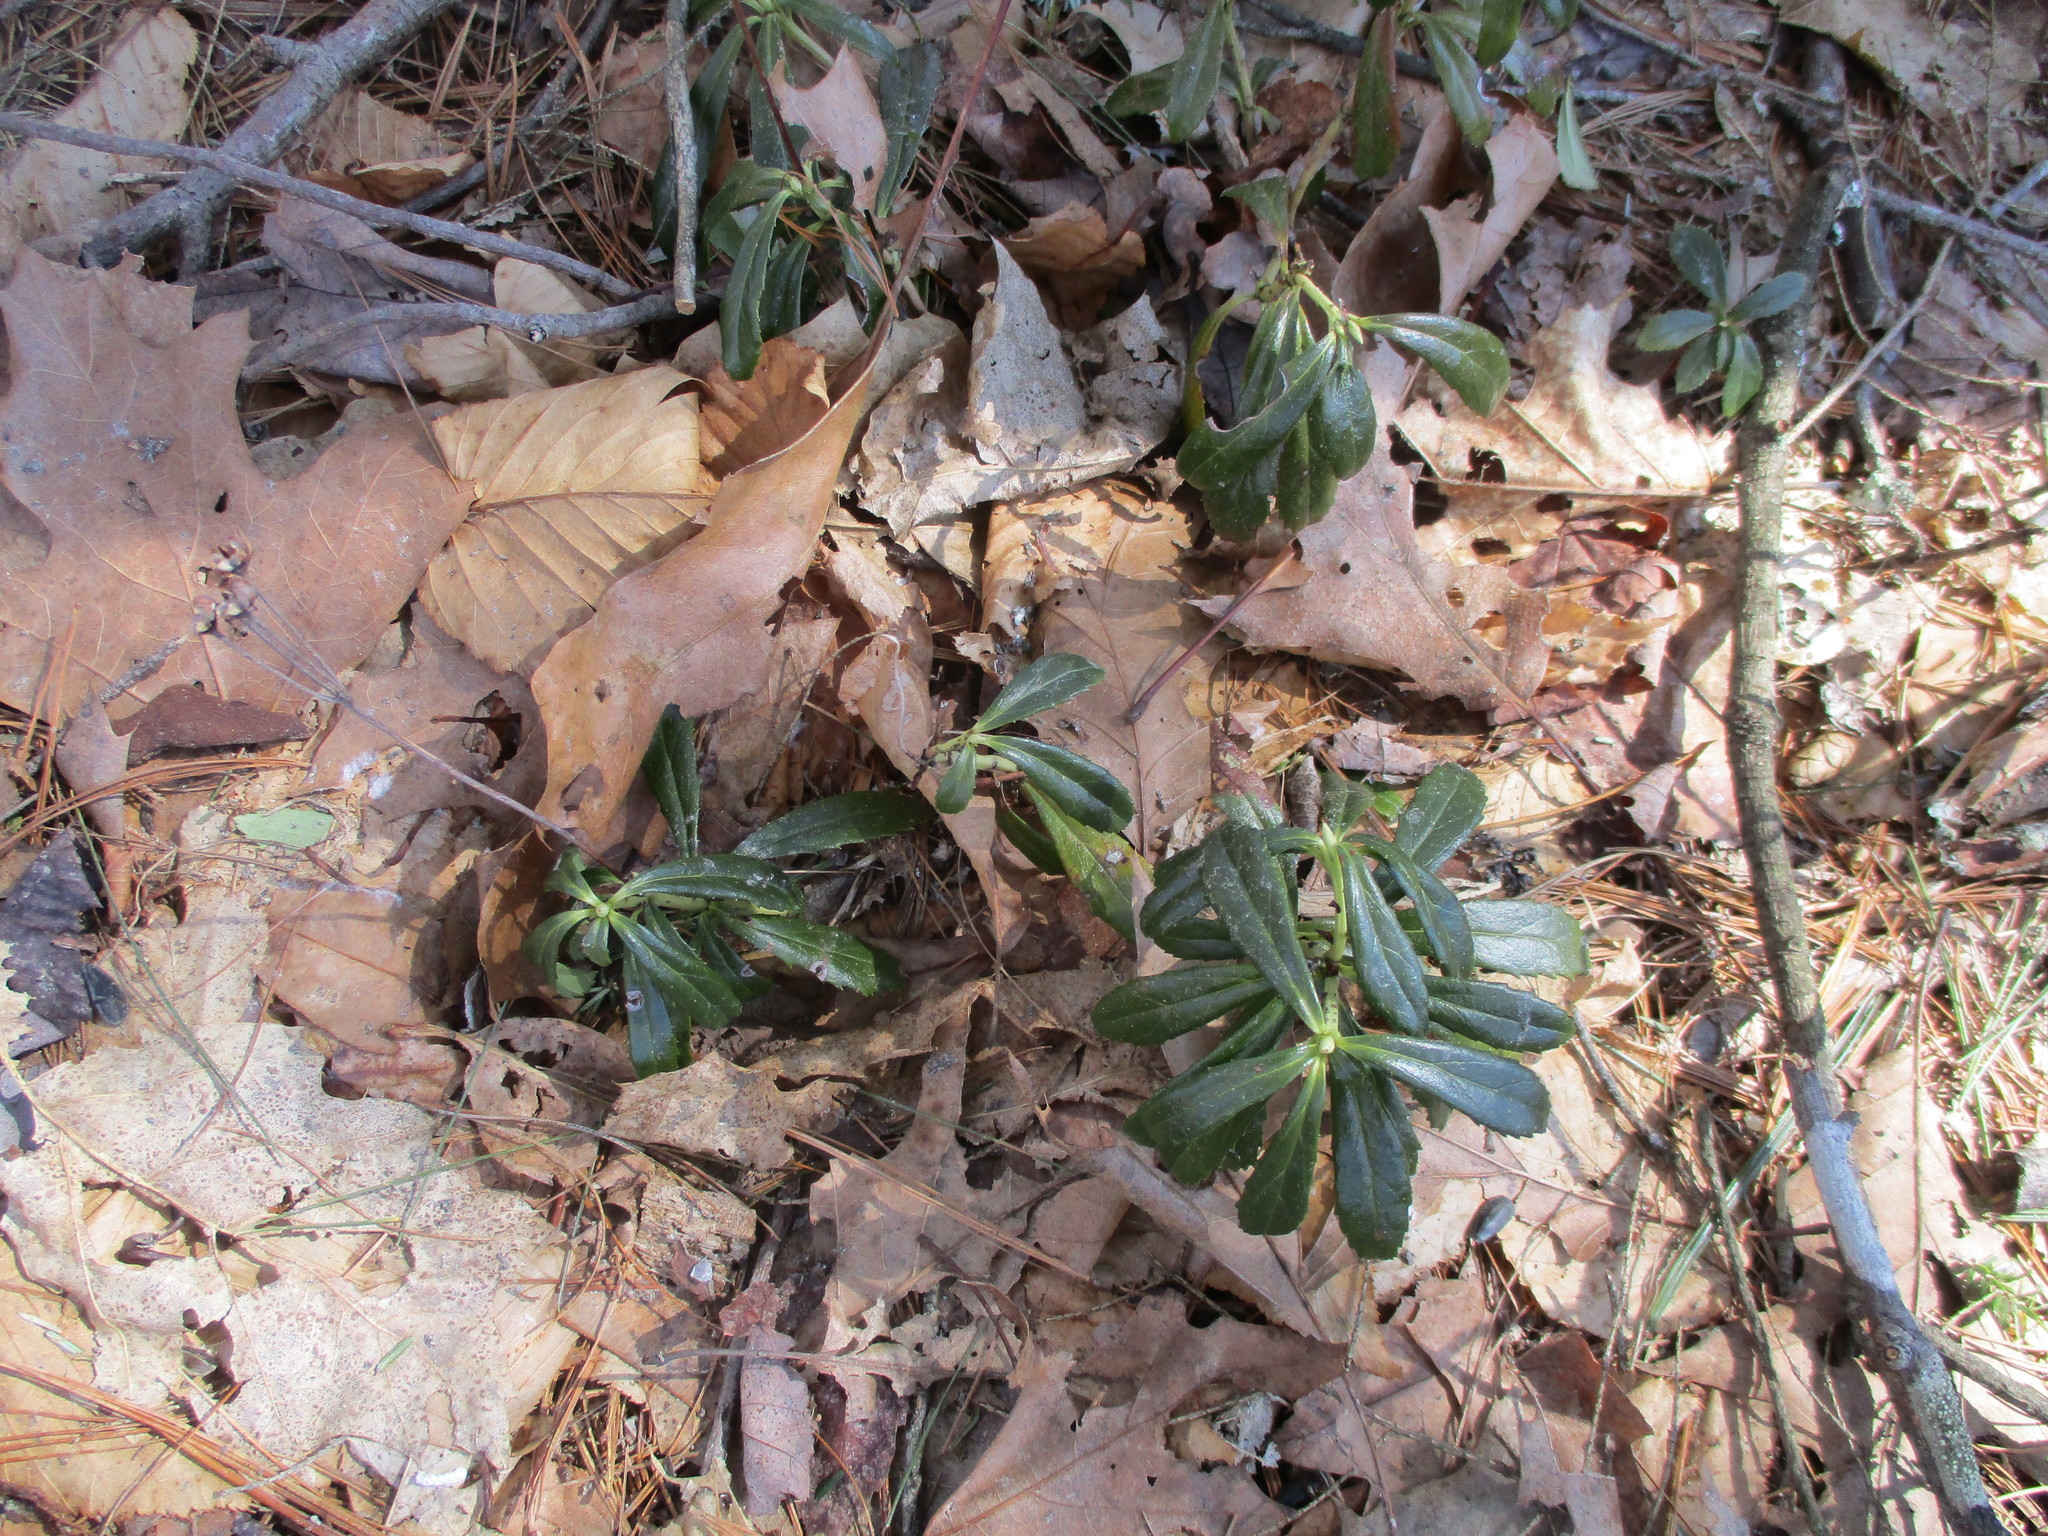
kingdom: Plantae
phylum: Tracheophyta
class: Magnoliopsida
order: Ericales
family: Ericaceae
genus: Chimaphila
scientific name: Chimaphila umbellata
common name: Pipsissewa
